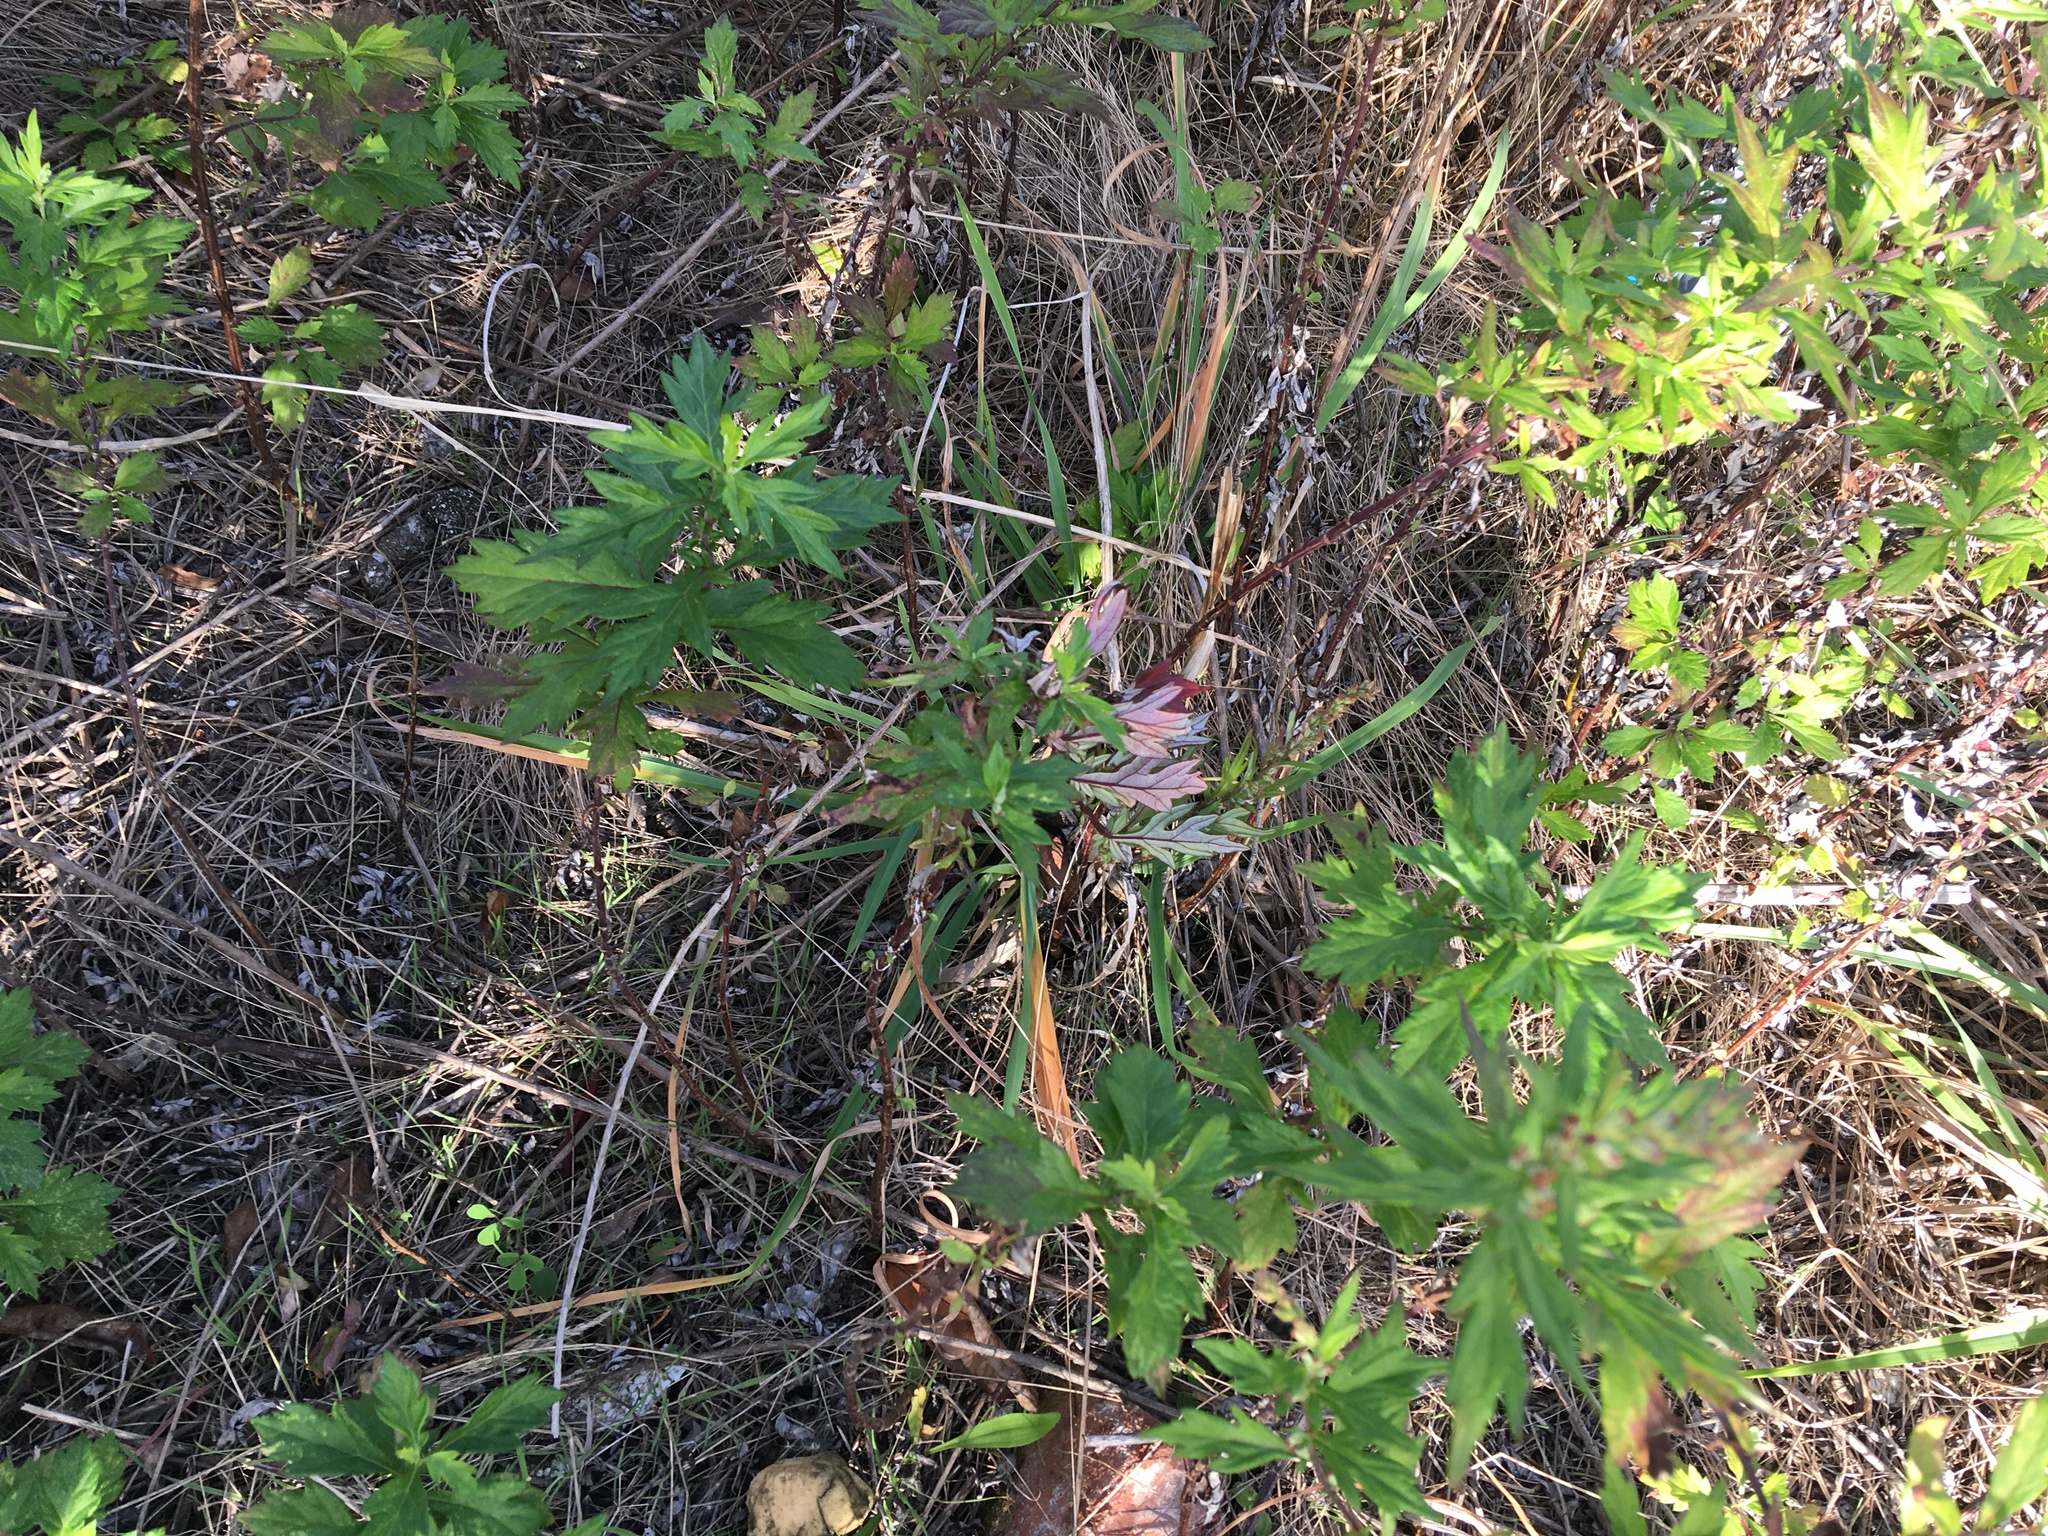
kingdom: Plantae
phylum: Tracheophyta
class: Magnoliopsida
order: Asterales
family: Asteraceae
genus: Artemisia
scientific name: Artemisia vulgaris
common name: Mugwort
